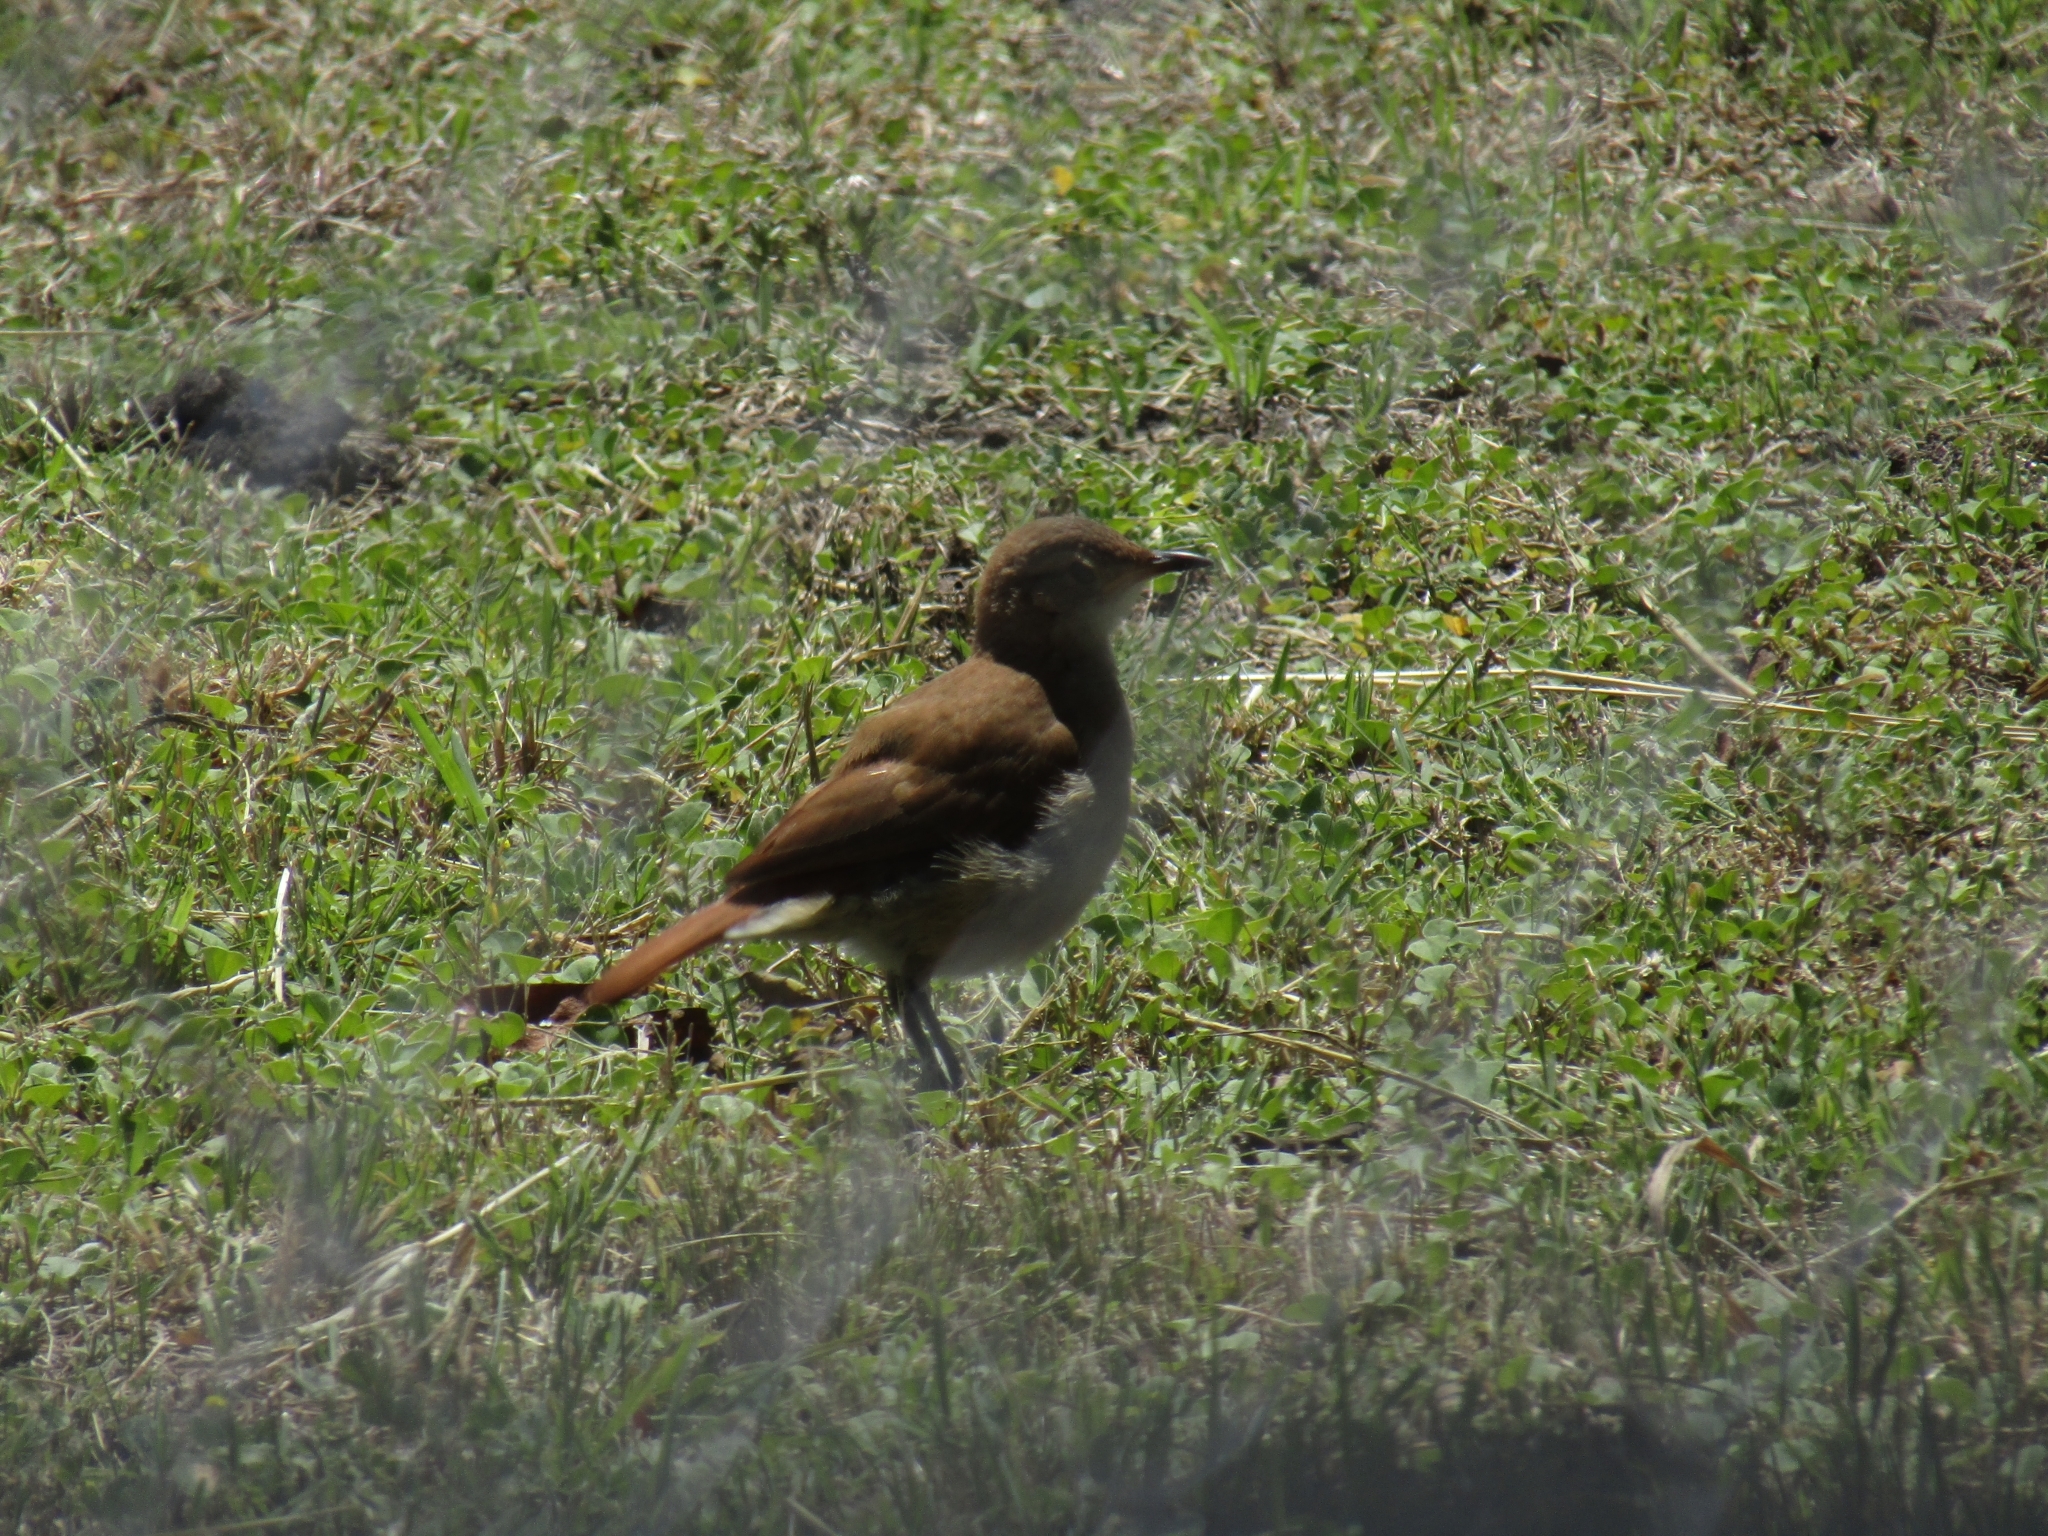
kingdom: Animalia
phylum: Chordata
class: Aves
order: Passeriformes
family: Furnariidae
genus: Furnarius
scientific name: Furnarius rufus
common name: Rufous hornero
